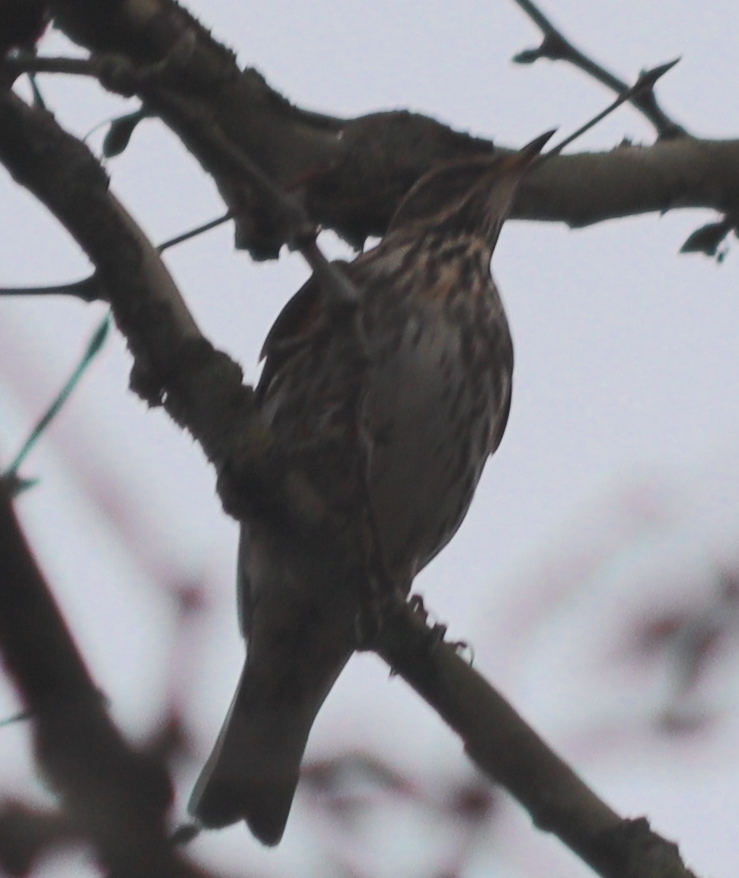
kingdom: Animalia
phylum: Chordata
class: Aves
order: Passeriformes
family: Turdidae
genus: Turdus
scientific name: Turdus iliacus
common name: Redwing
